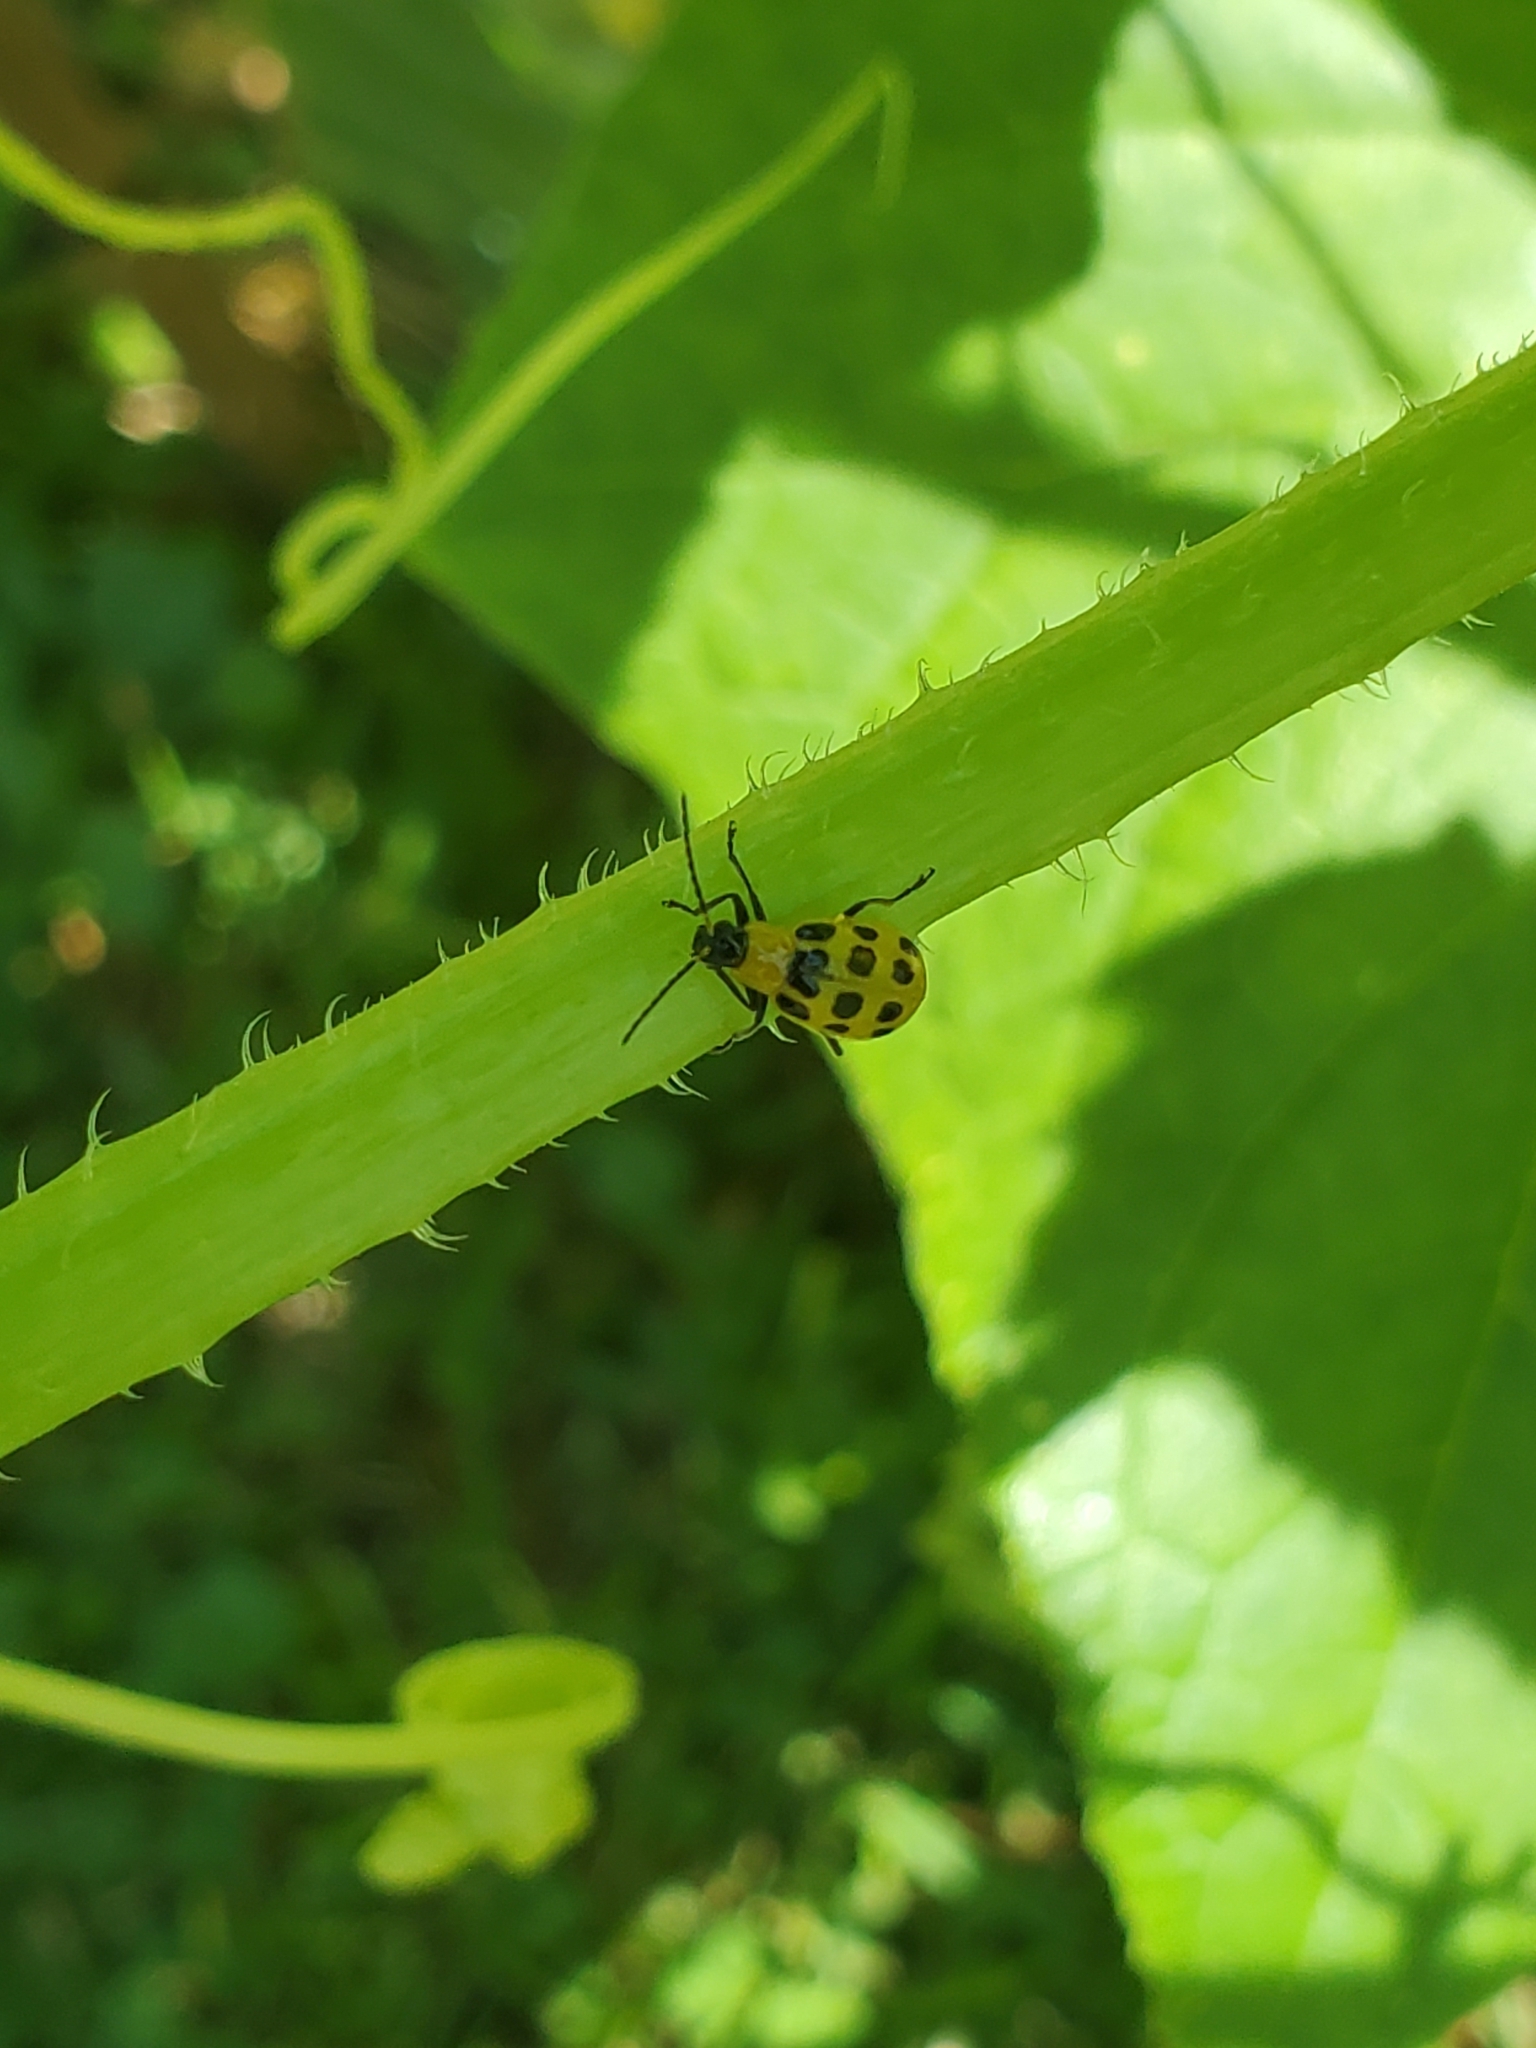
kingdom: Animalia
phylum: Arthropoda
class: Insecta
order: Coleoptera
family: Chrysomelidae
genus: Diabrotica
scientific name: Diabrotica undecimpunctata
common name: Spotted cucumber beetle
